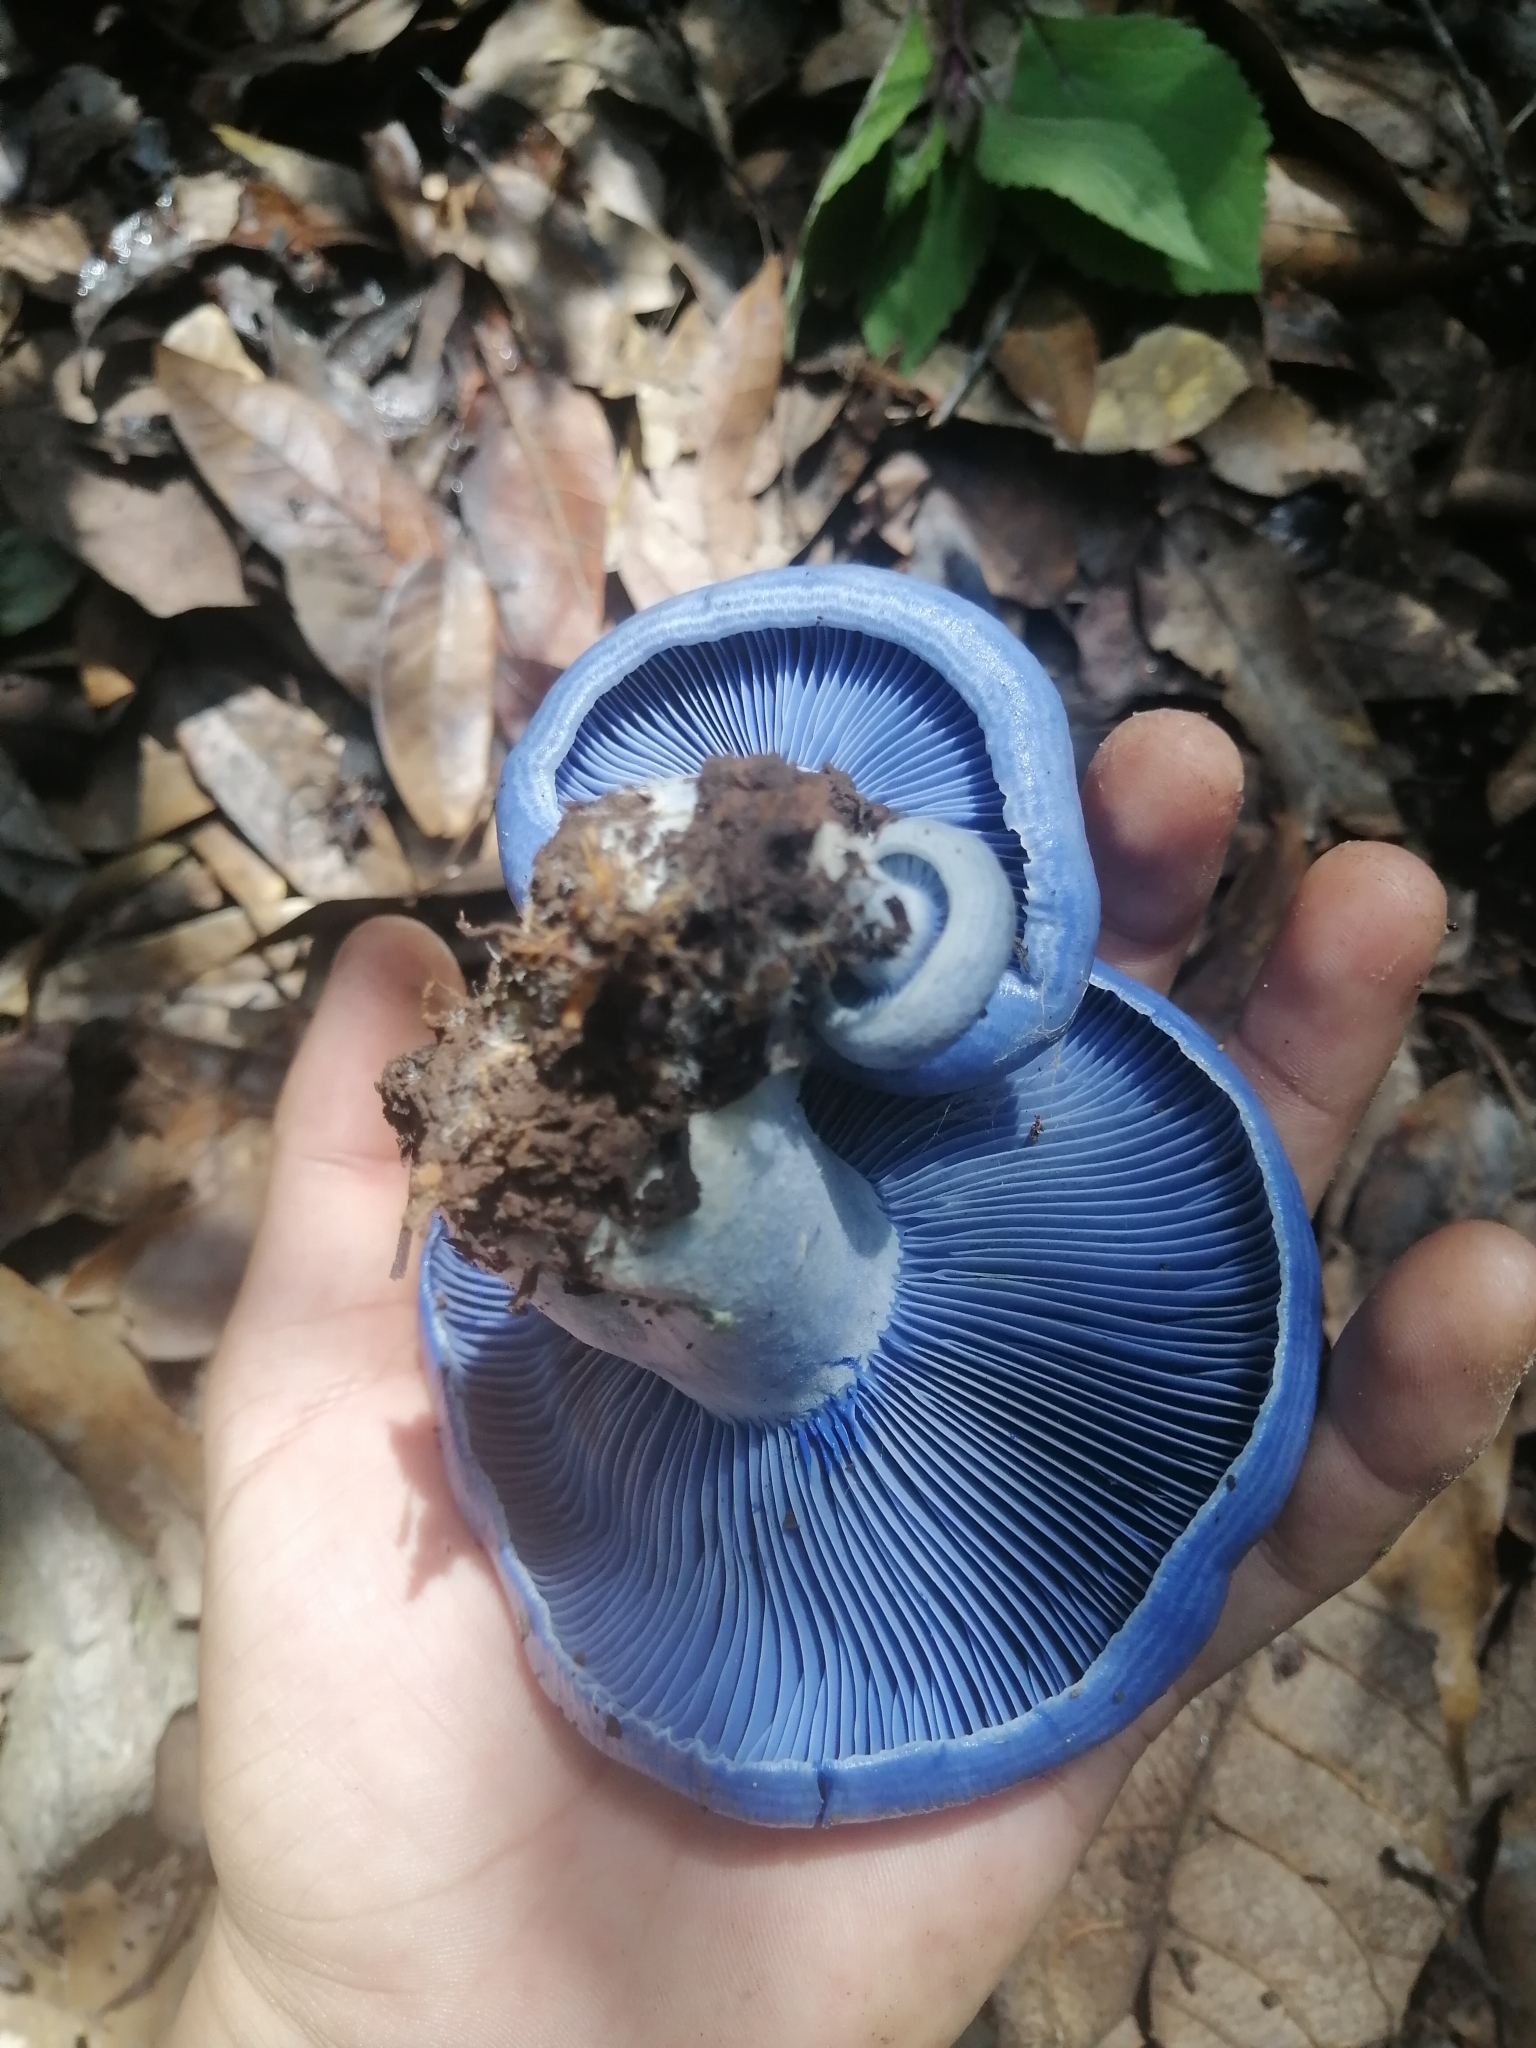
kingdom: Fungi
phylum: Basidiomycota
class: Agaricomycetes
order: Russulales
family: Russulaceae
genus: Lactarius
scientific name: Lactarius indigo
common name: Indigo milk cap
